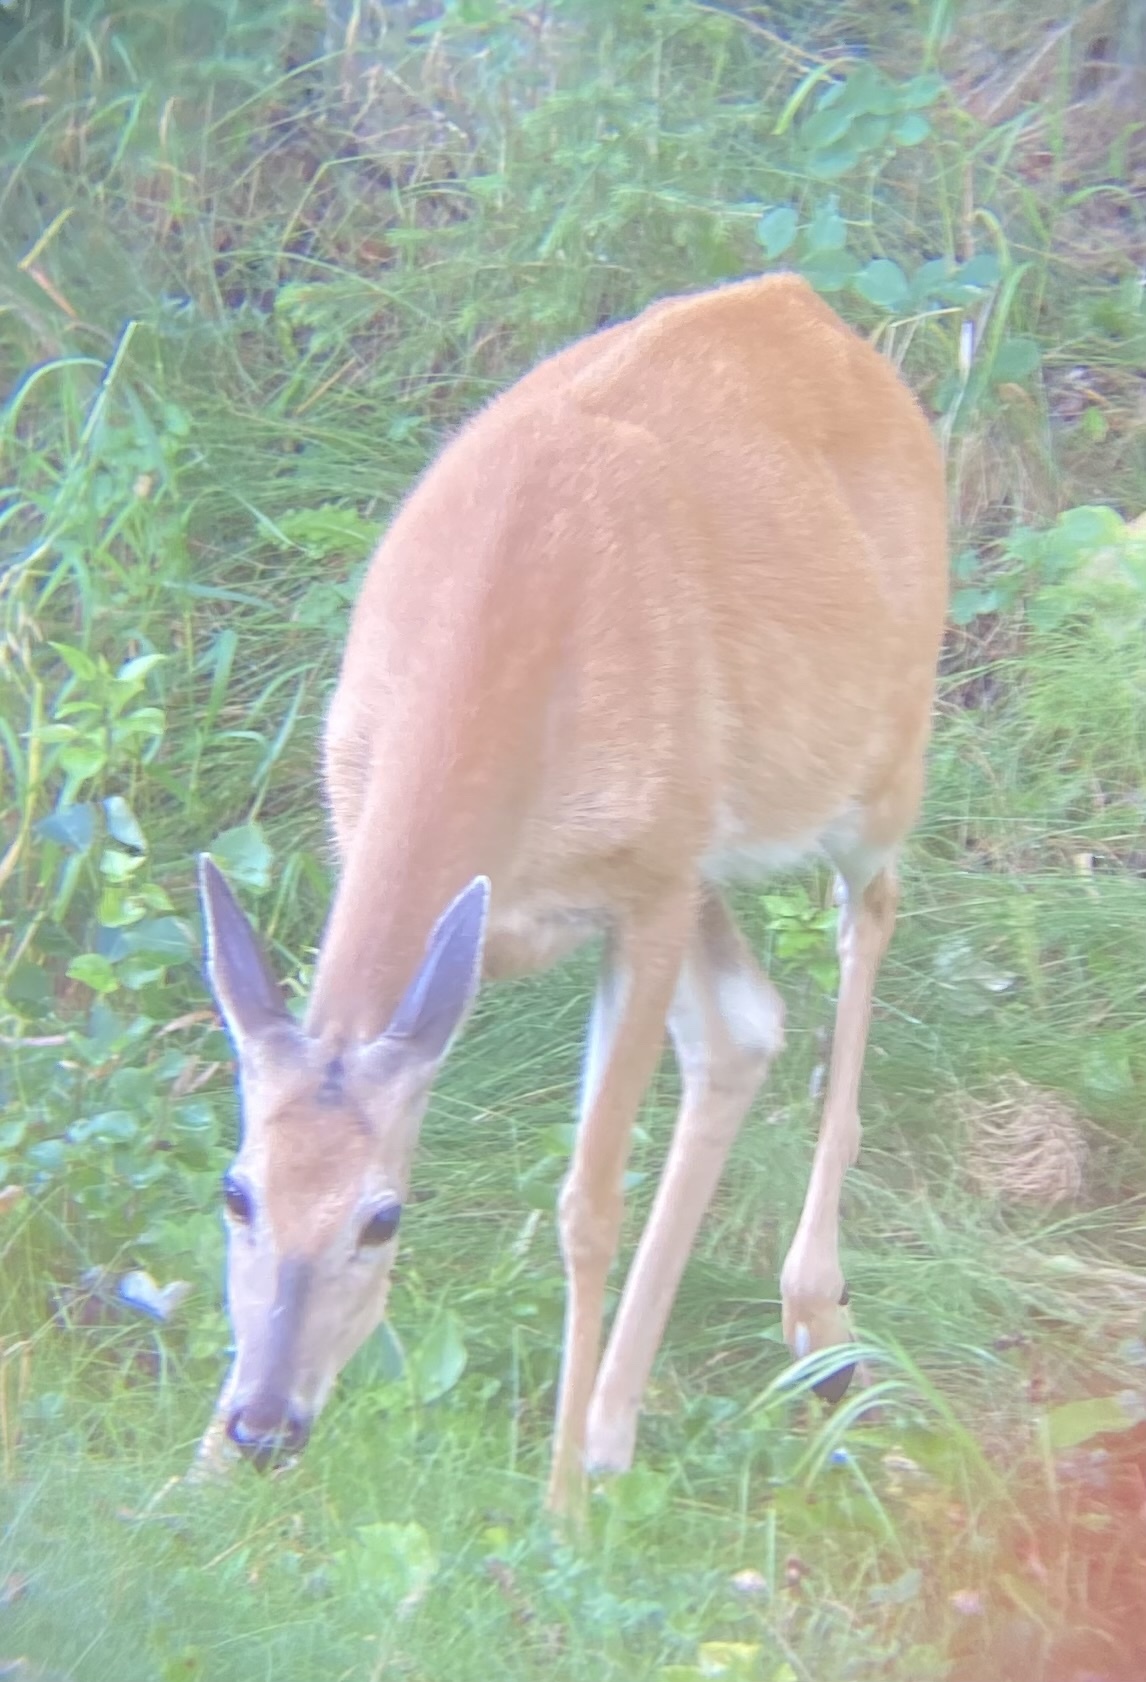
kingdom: Animalia
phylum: Chordata
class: Mammalia
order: Artiodactyla
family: Cervidae
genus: Odocoileus
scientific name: Odocoileus virginianus
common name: White-tailed deer
